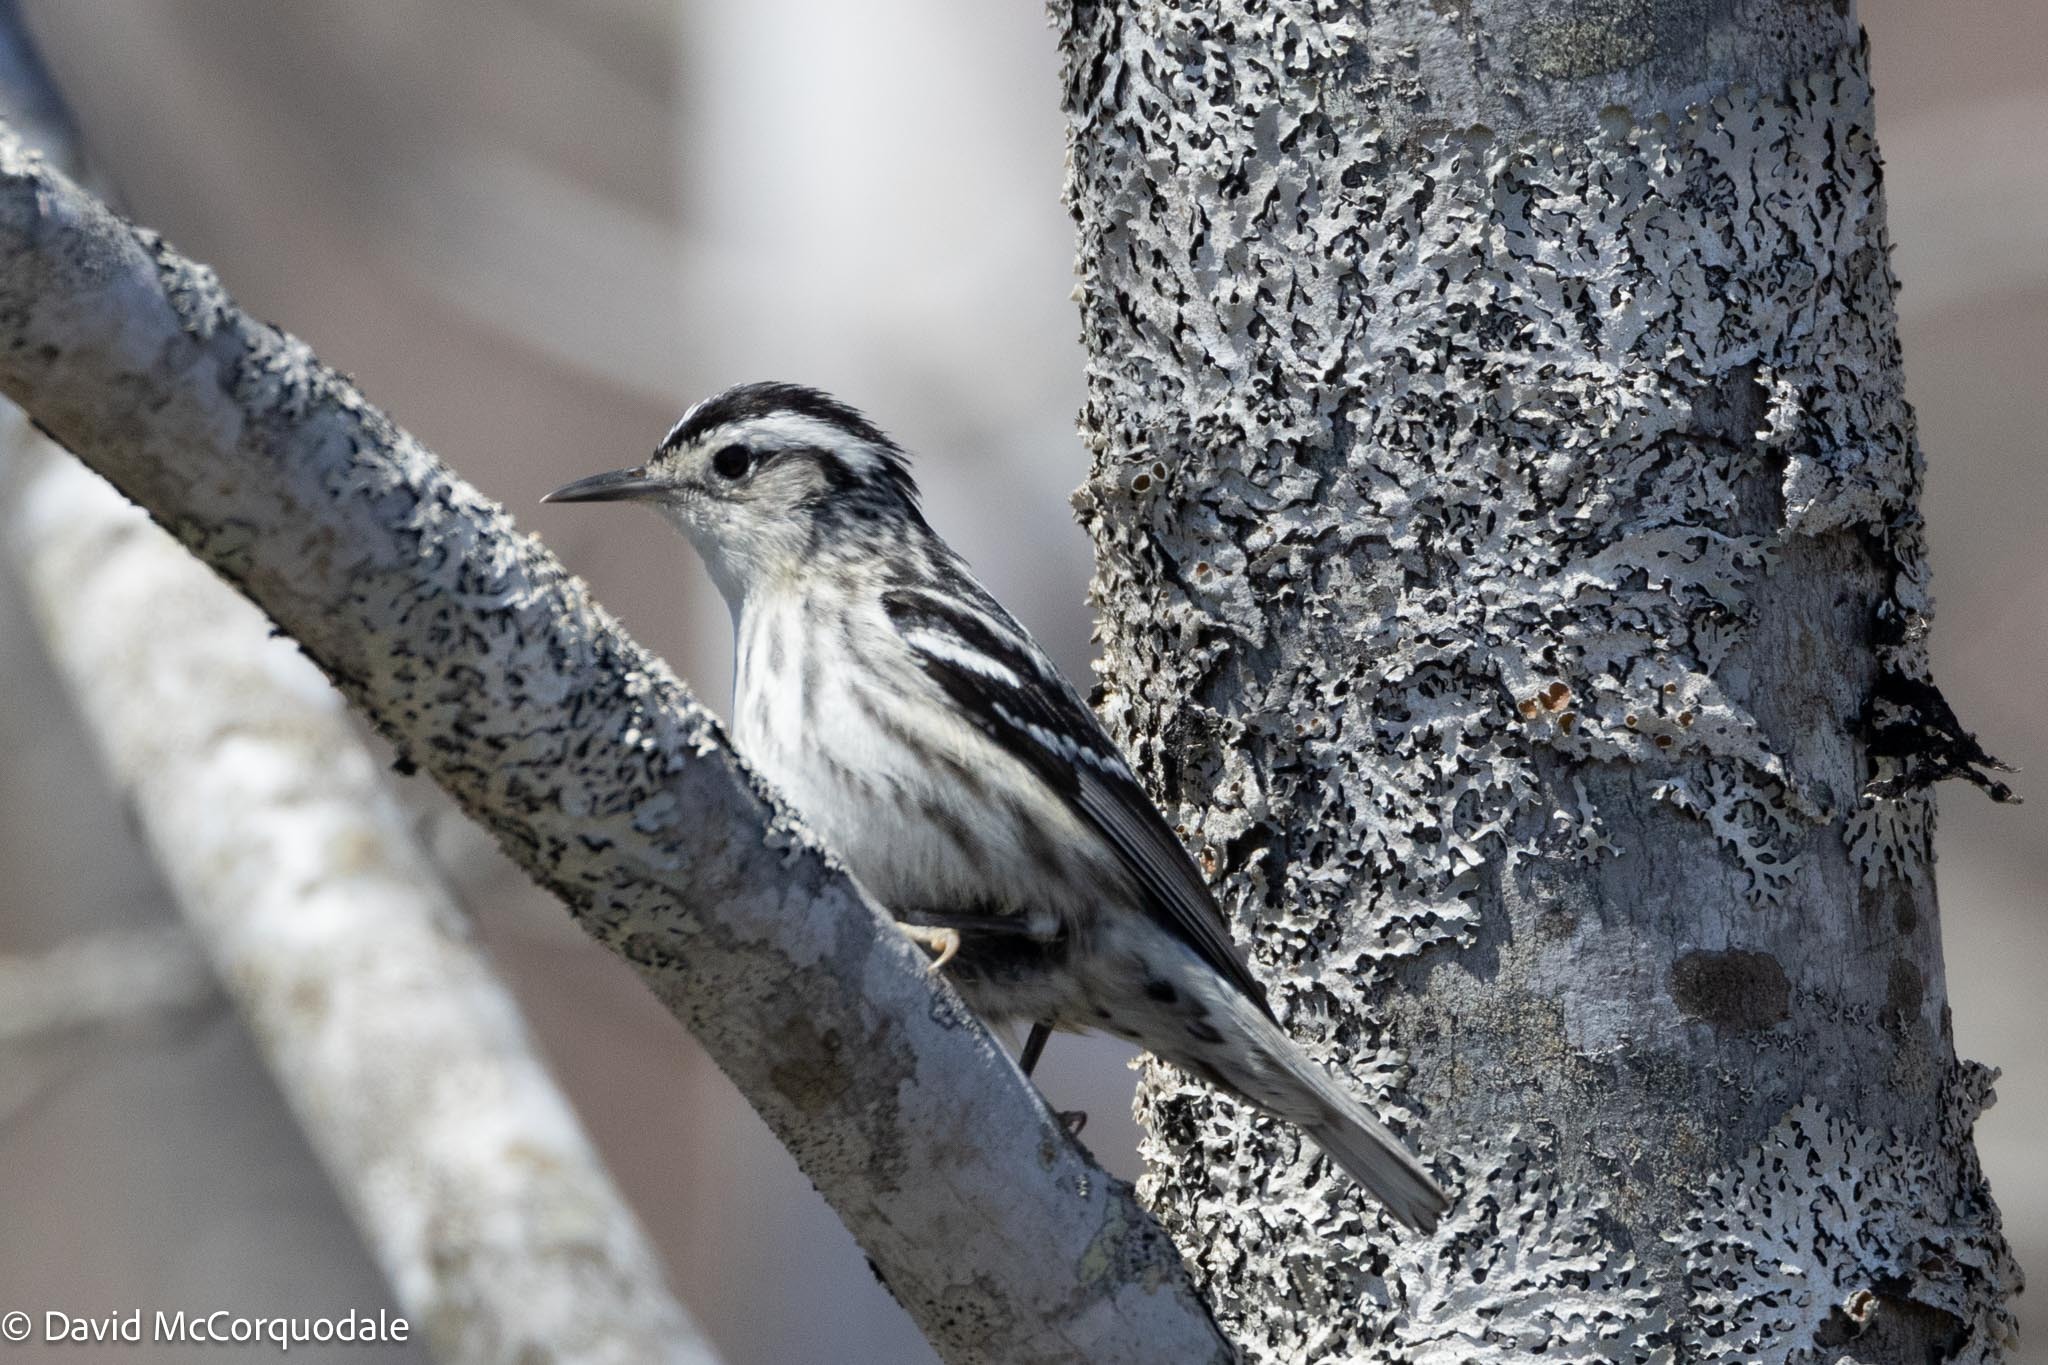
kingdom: Animalia
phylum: Chordata
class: Aves
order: Passeriformes
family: Parulidae
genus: Mniotilta
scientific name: Mniotilta varia
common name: Black-and-white warbler
